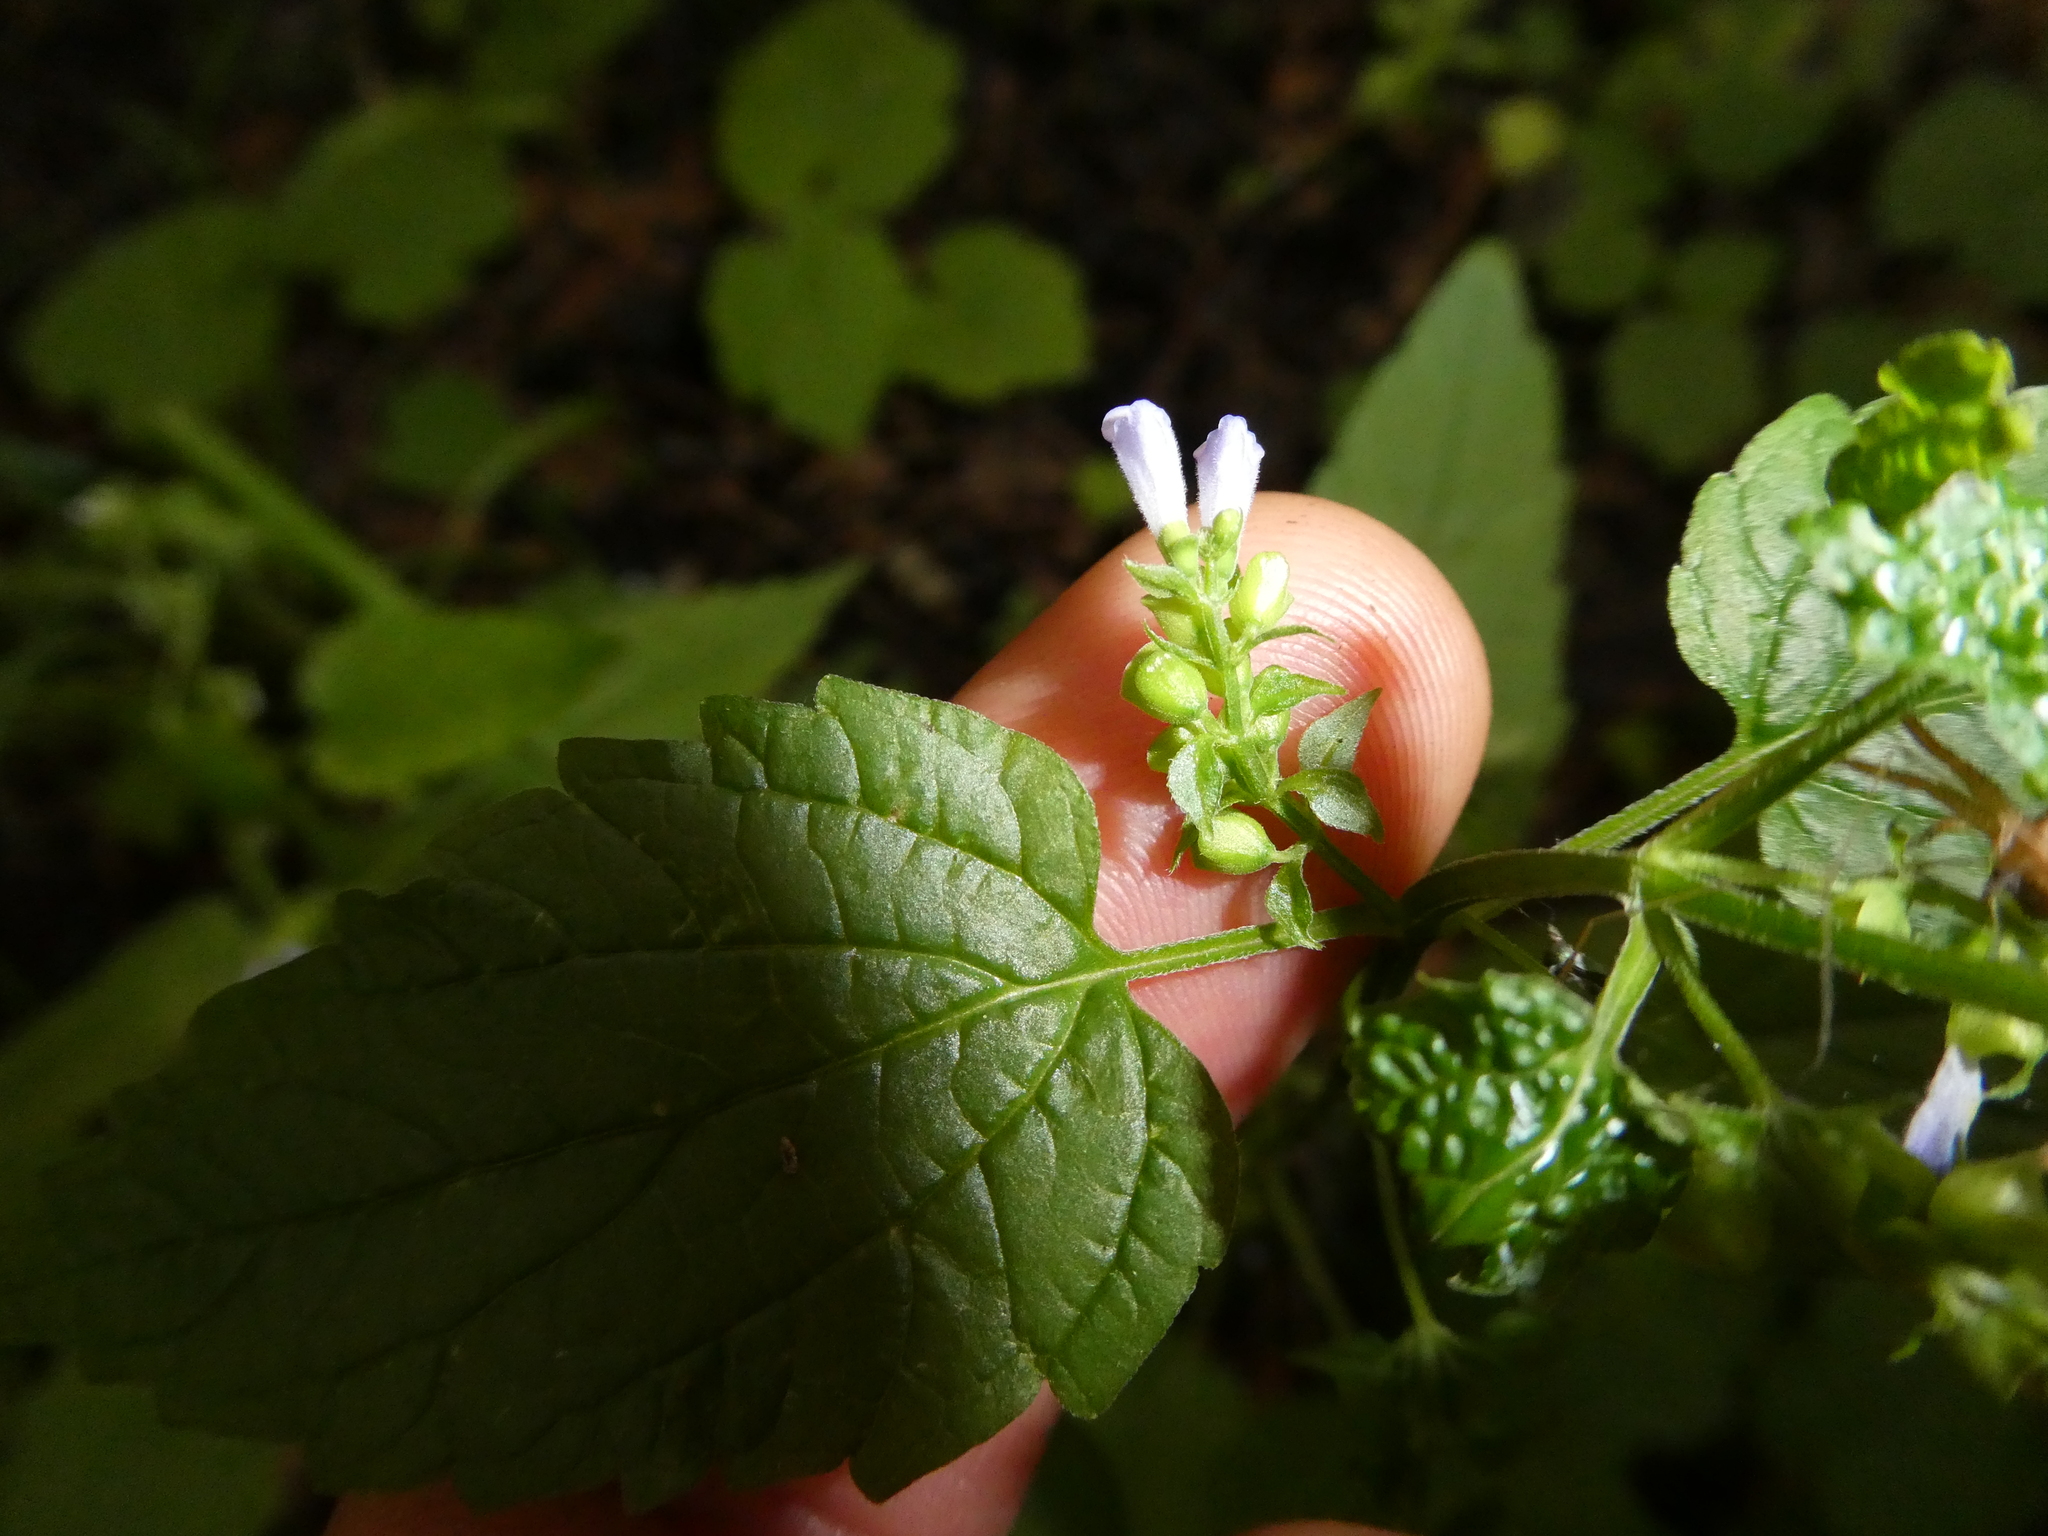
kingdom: Plantae
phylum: Tracheophyta
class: Magnoliopsida
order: Lamiales
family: Lamiaceae
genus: Scutellaria
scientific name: Scutellaria lateriflora
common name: Blue skullcap
